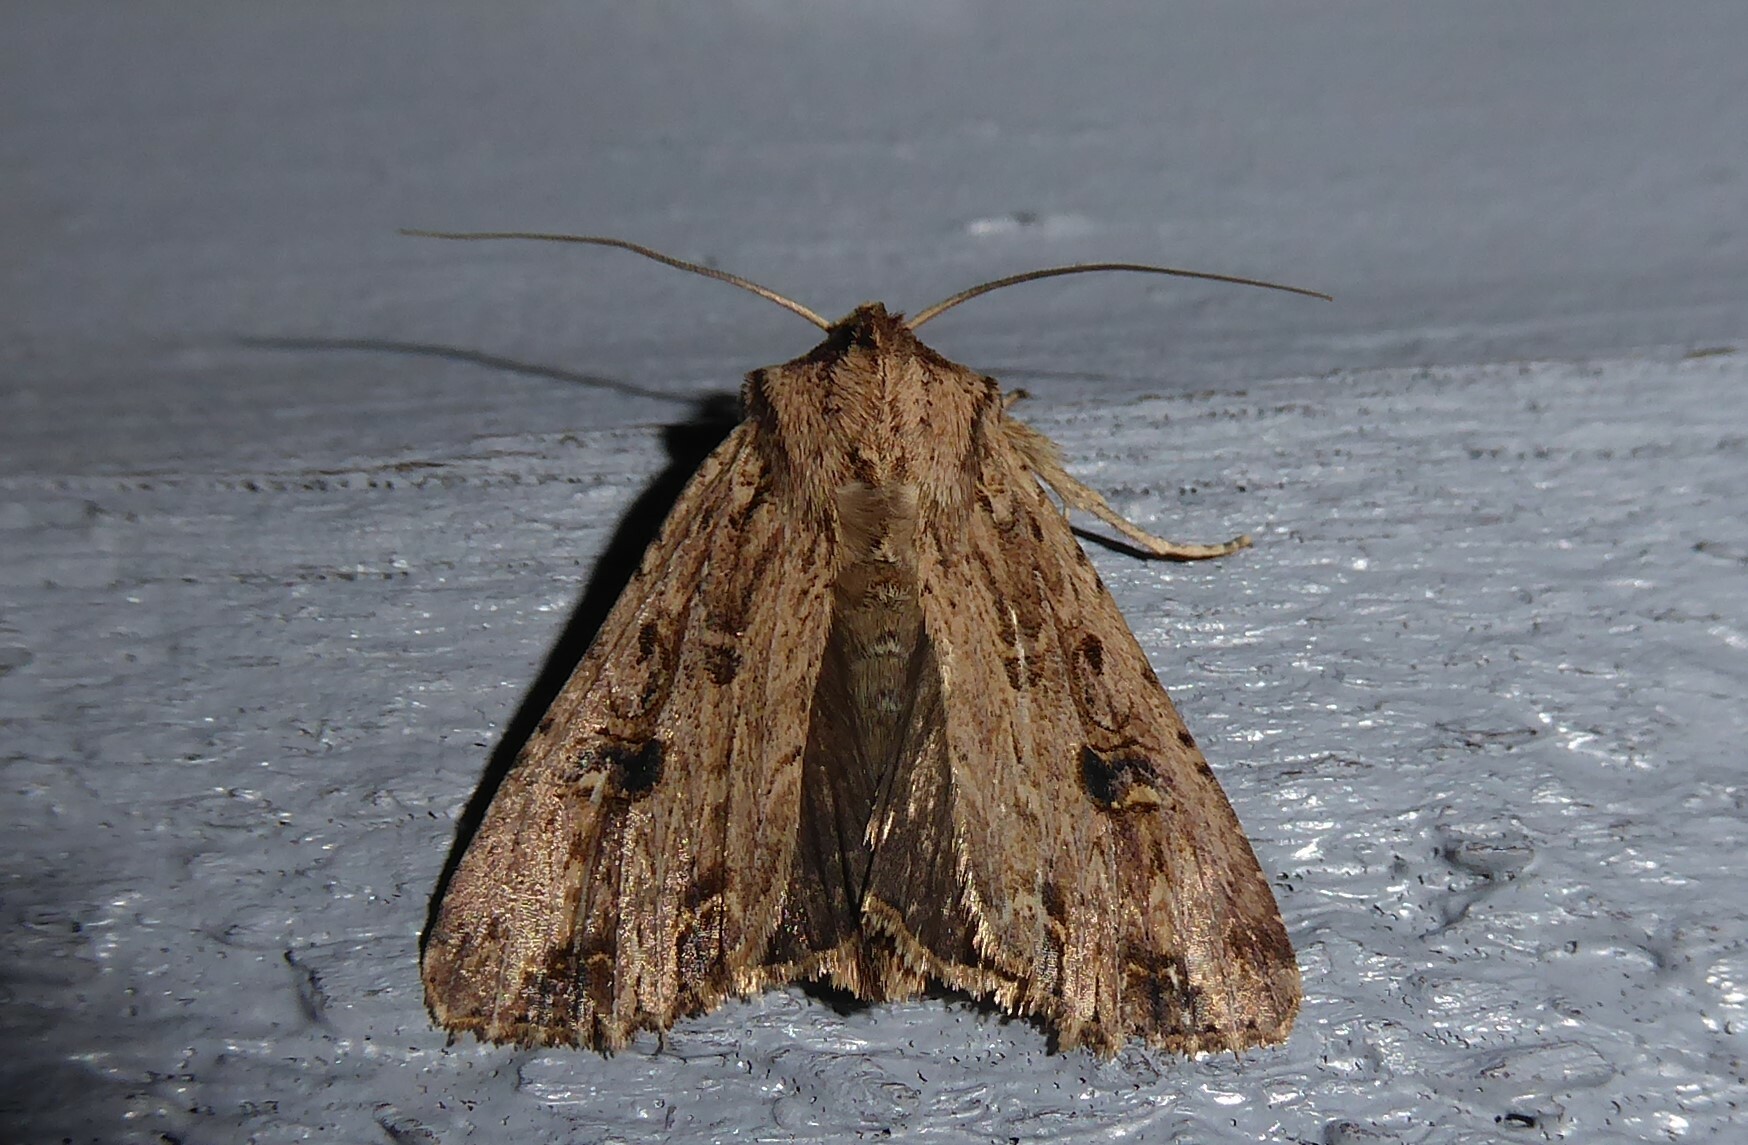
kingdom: Animalia
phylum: Arthropoda
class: Insecta
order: Lepidoptera
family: Noctuidae
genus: Ichneutica
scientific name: Ichneutica lignana
